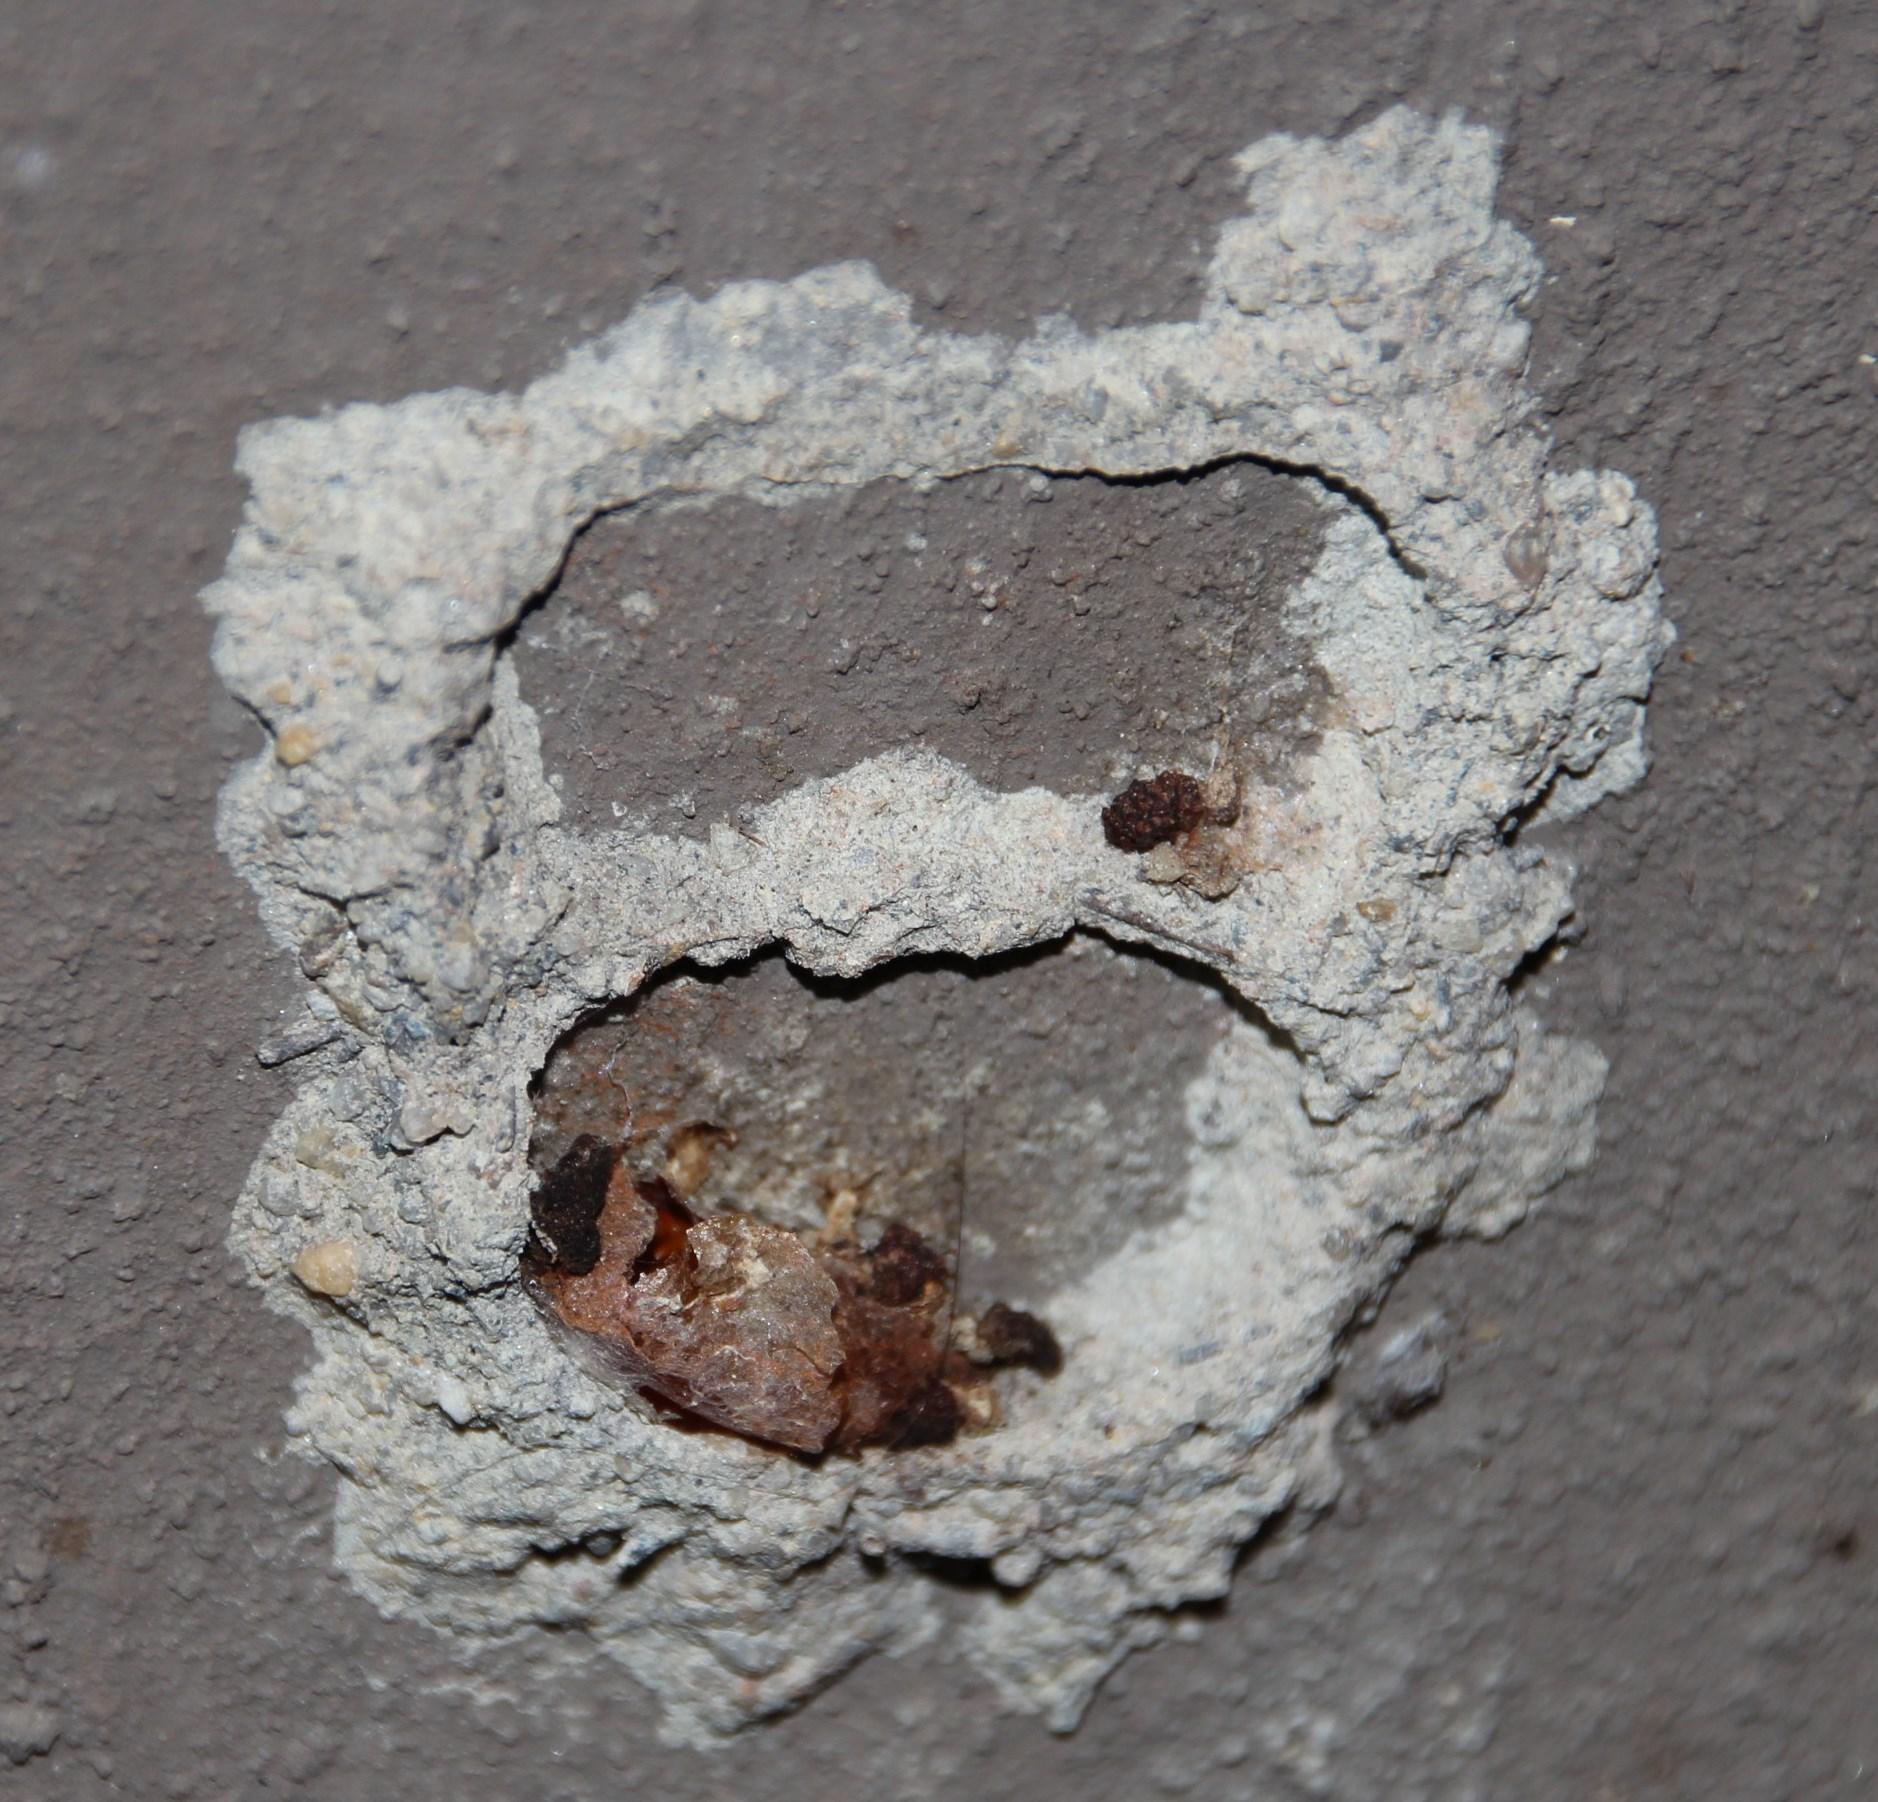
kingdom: Animalia
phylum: Arthropoda
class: Insecta
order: Hymenoptera
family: Eumenidae
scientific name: Eumenidae
